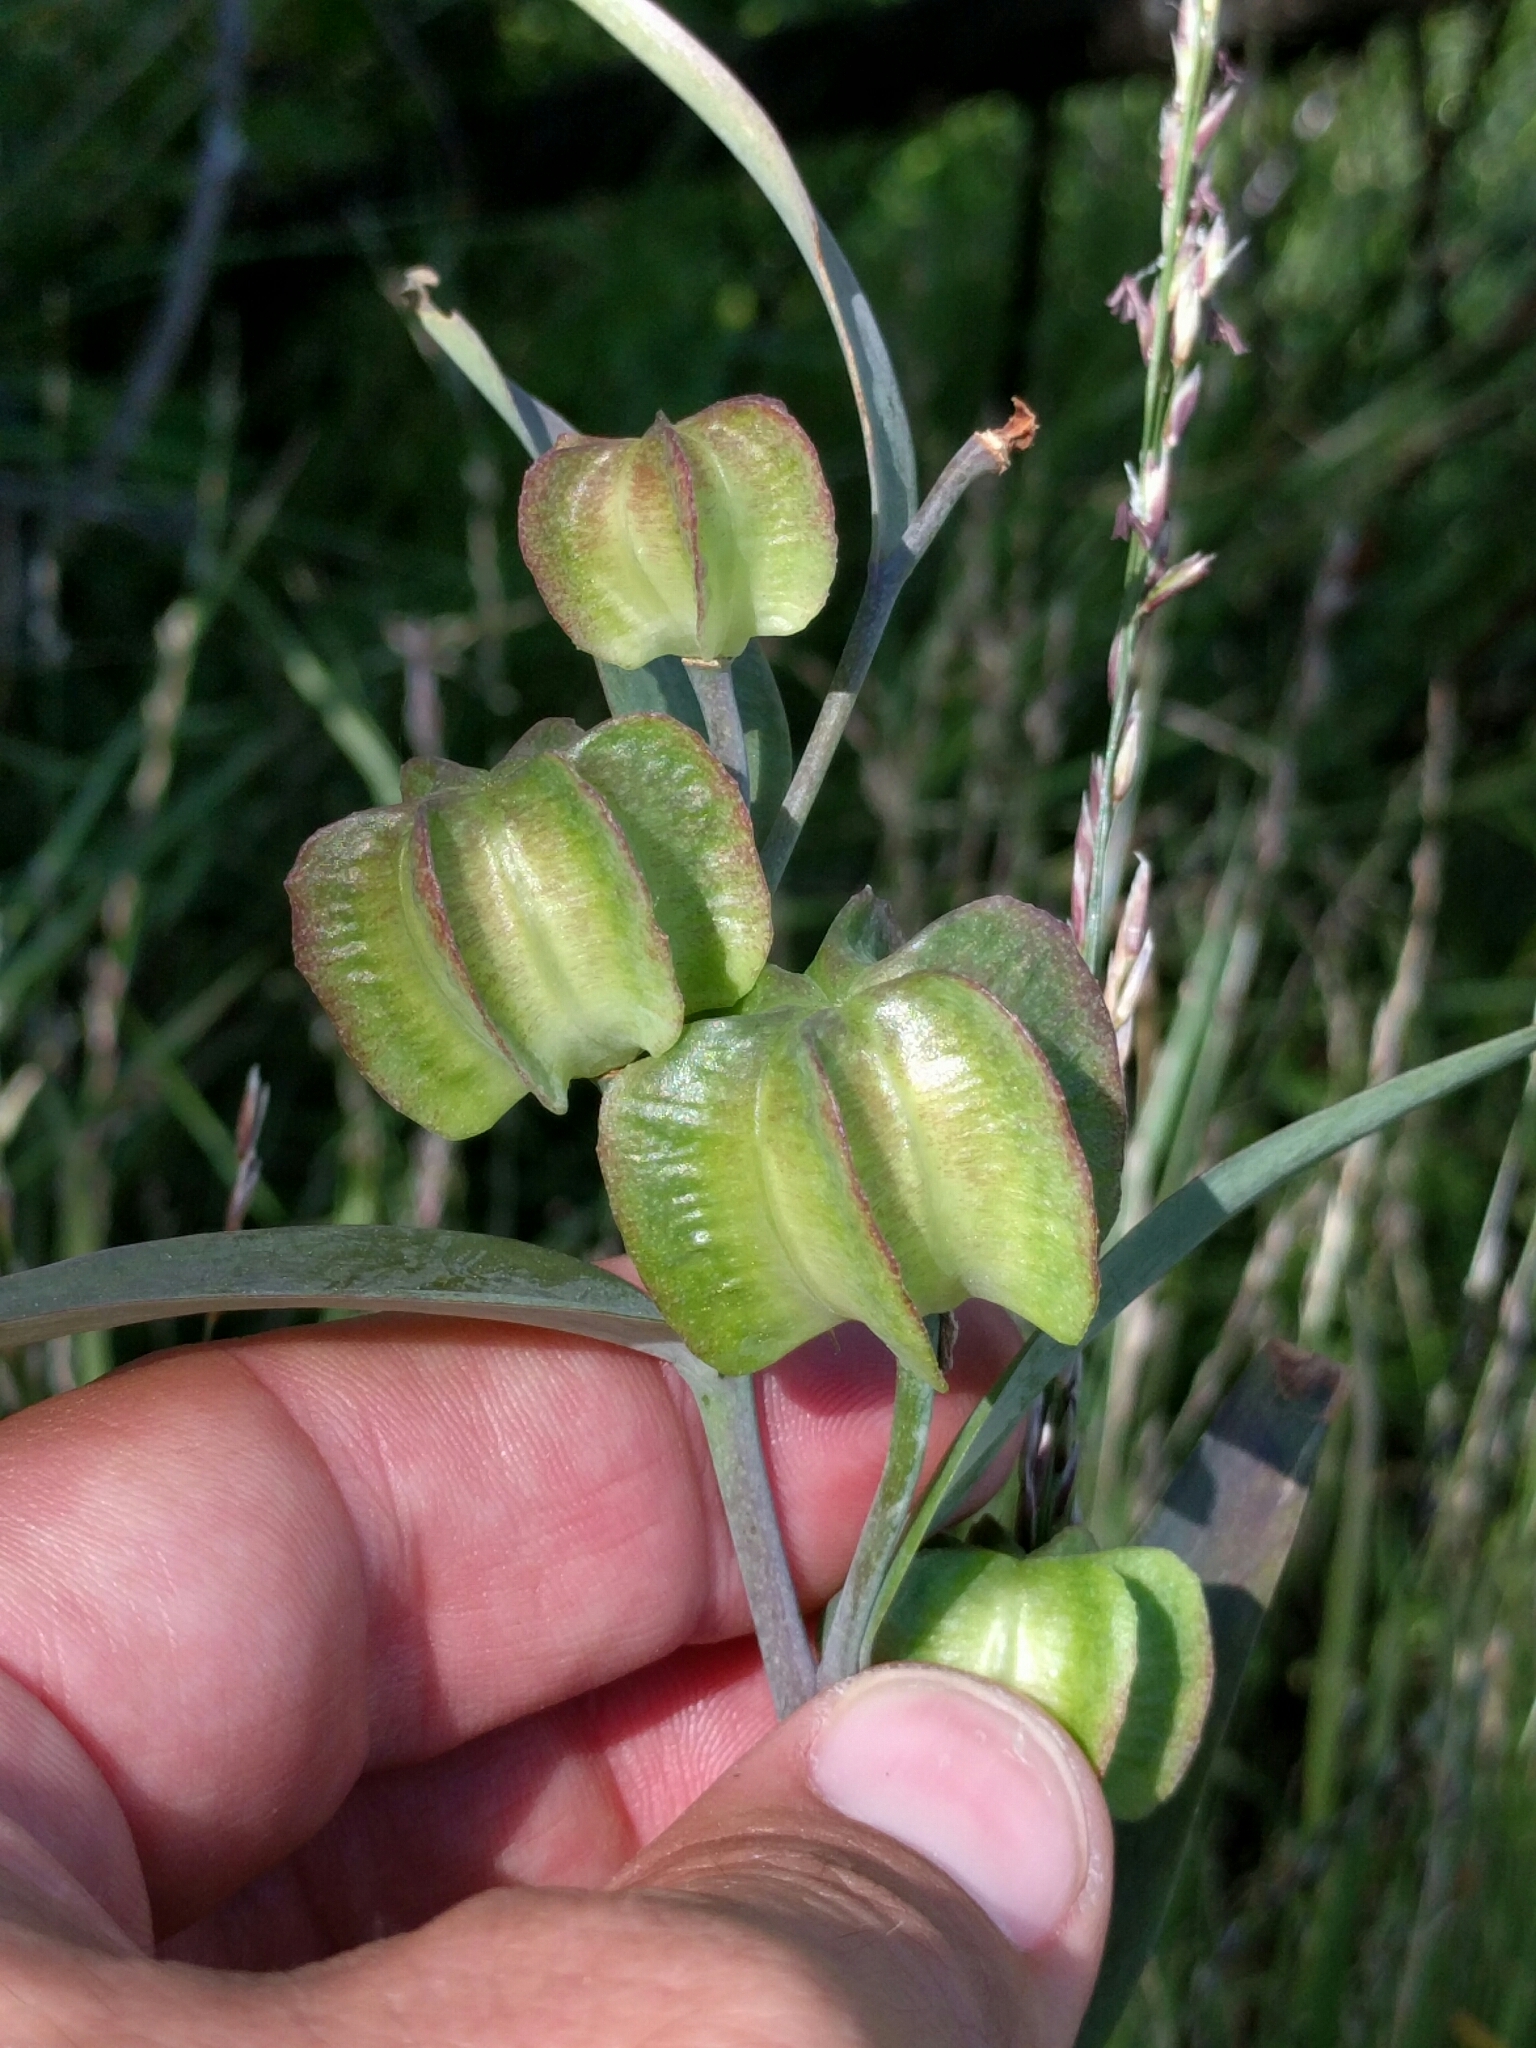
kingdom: Plantae
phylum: Tracheophyta
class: Liliopsida
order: Liliales
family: Liliaceae
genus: Fritillaria
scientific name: Fritillaria affinis
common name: Ojai fritillary
